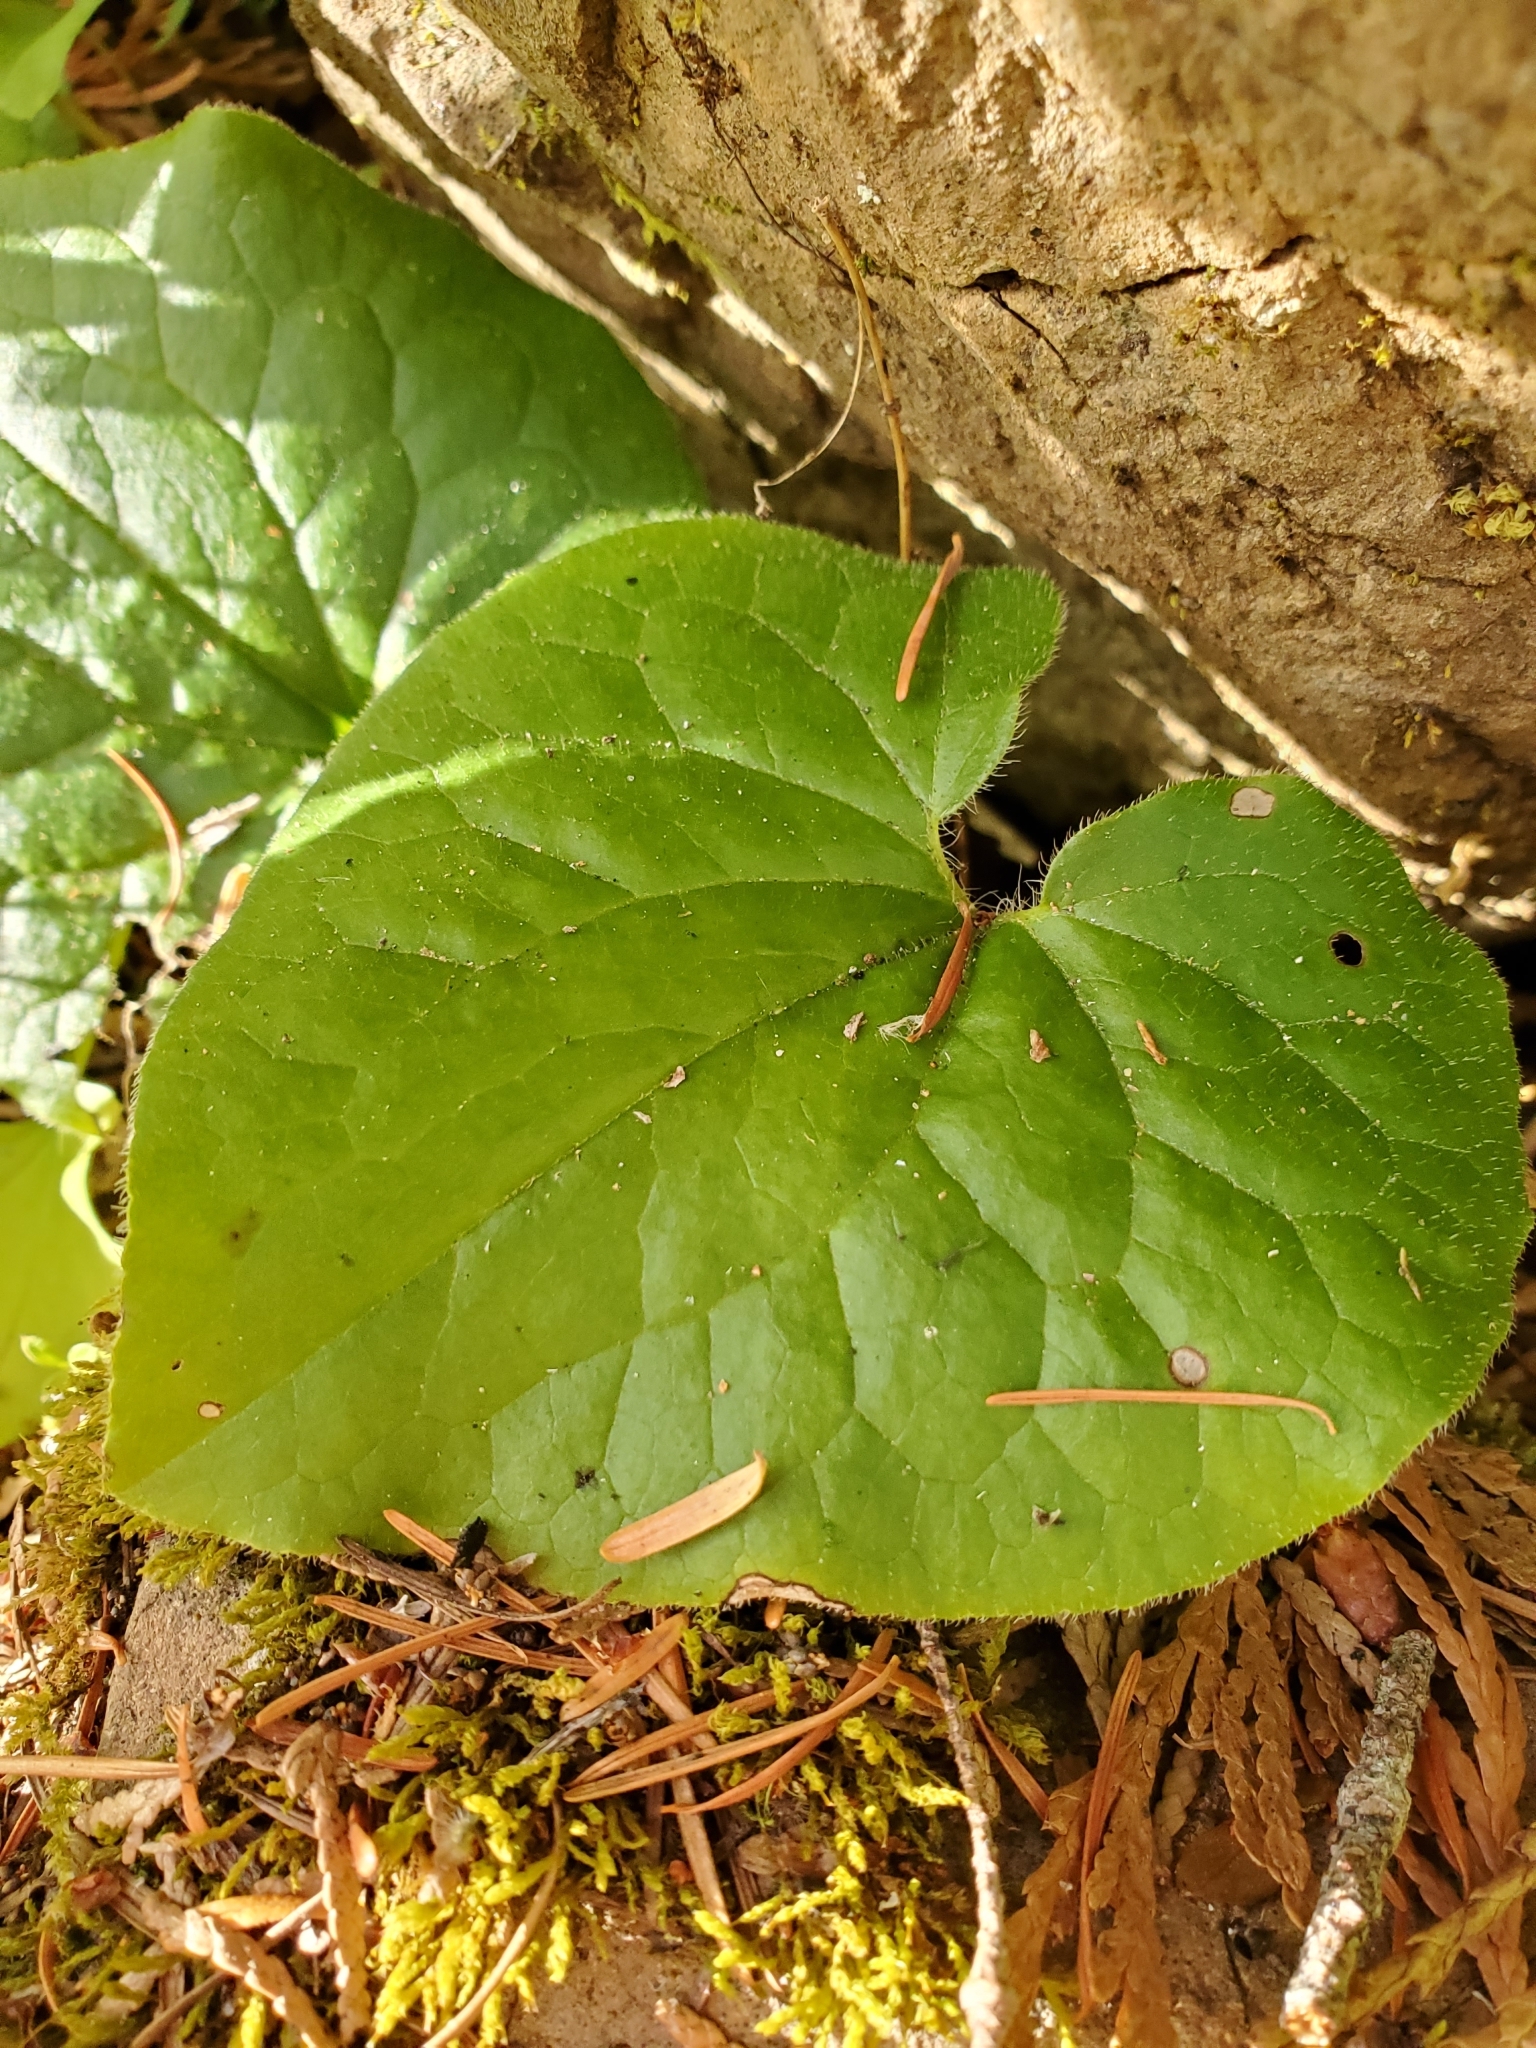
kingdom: Plantae
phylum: Tracheophyta
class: Magnoliopsida
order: Piperales
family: Aristolochiaceae
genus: Asarum
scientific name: Asarum caudatum
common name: Wild ginger
